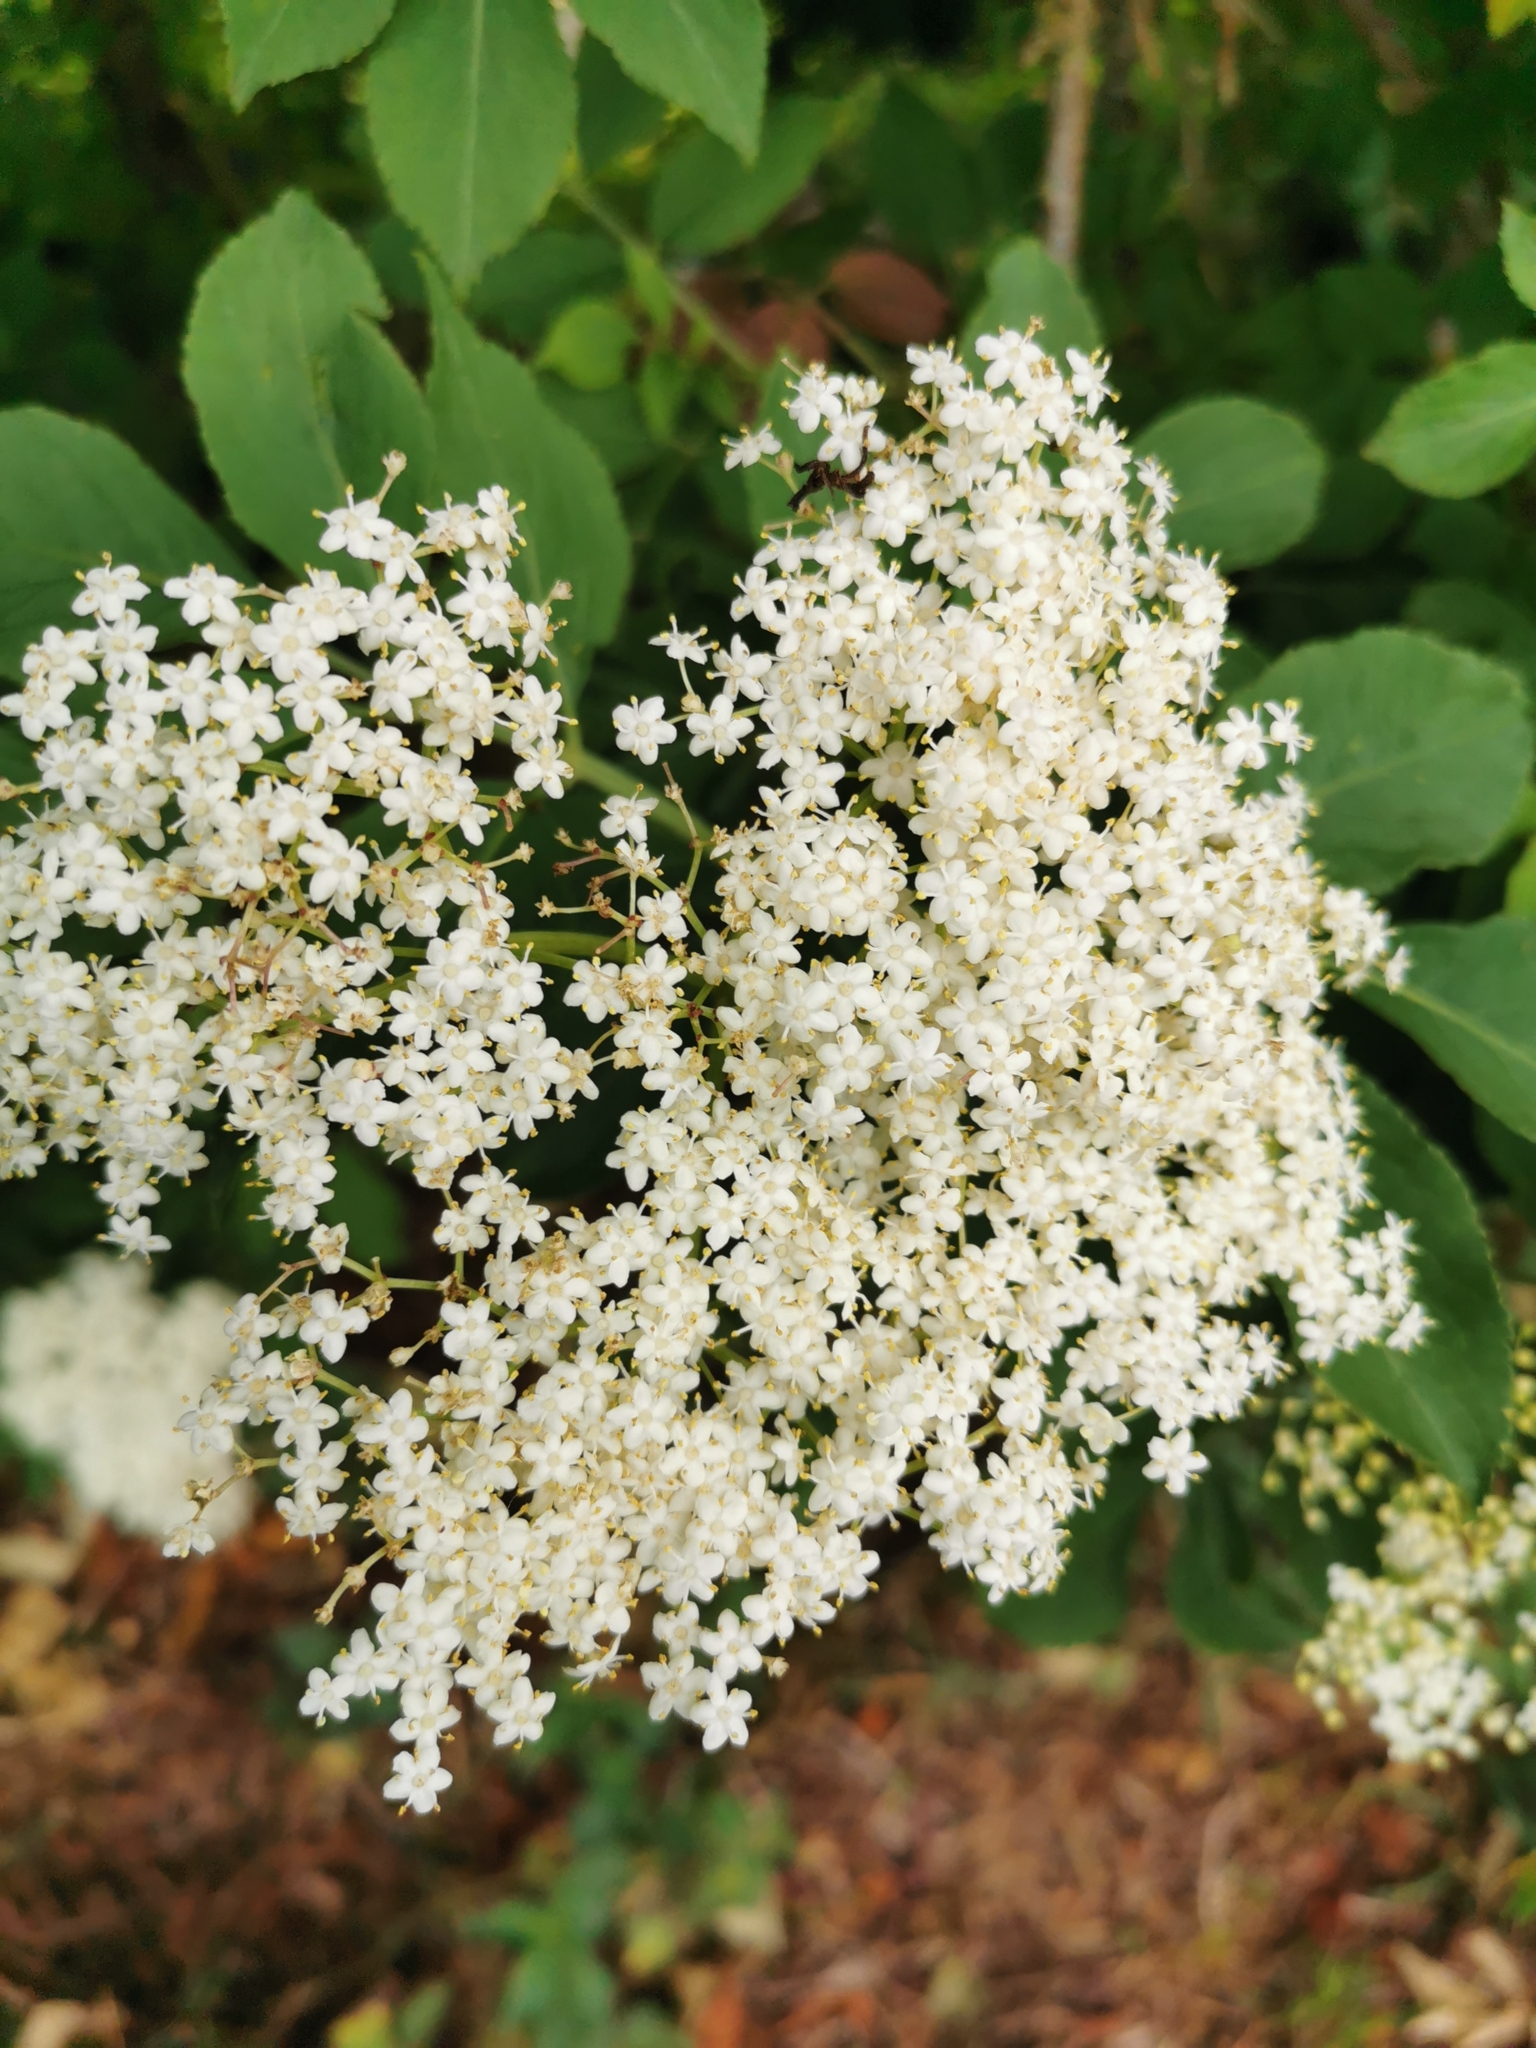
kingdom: Plantae
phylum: Tracheophyta
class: Magnoliopsida
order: Dipsacales
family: Viburnaceae
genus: Sambucus
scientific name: Sambucus nigra
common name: Elder
